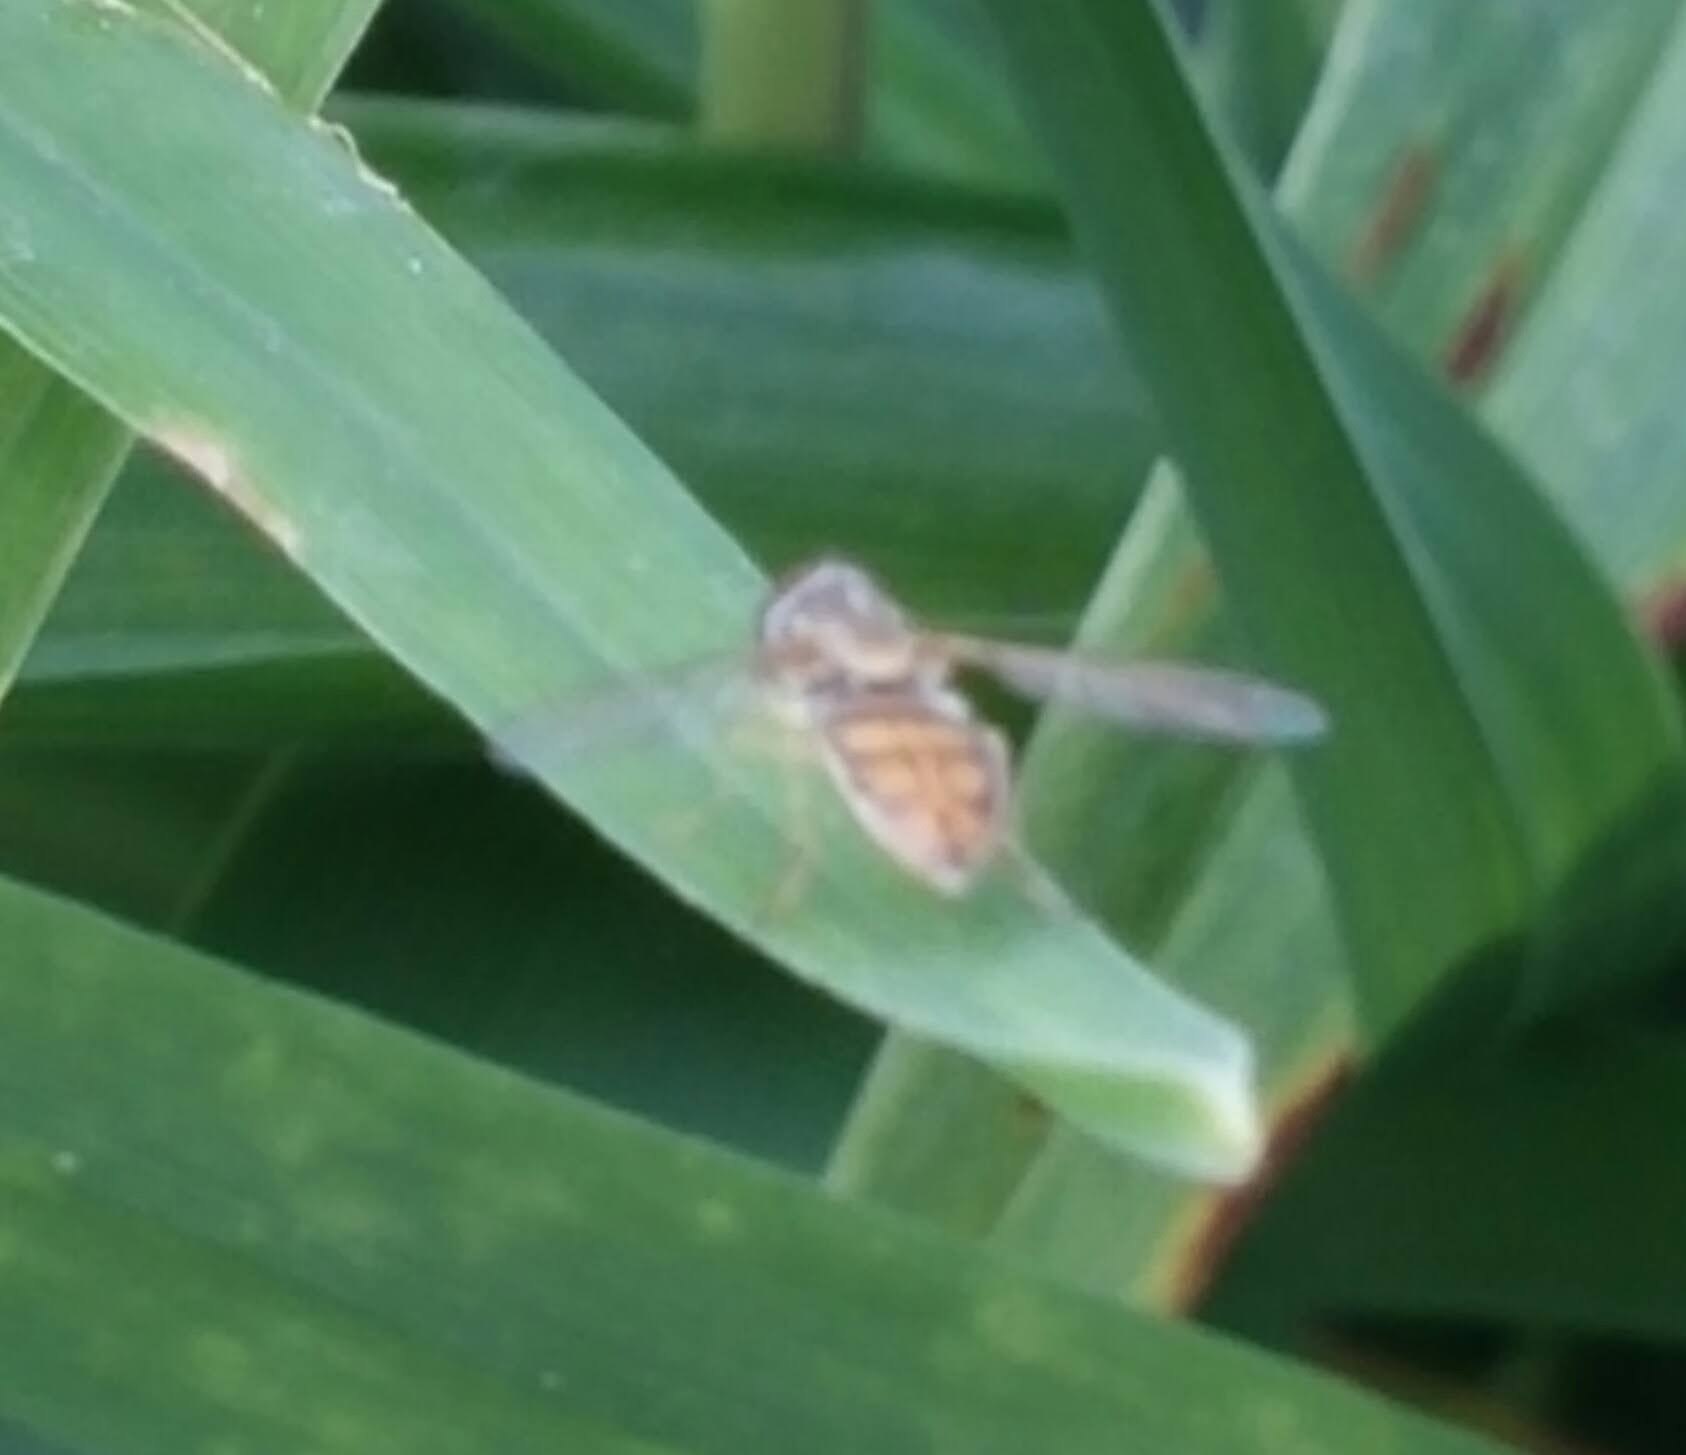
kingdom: Animalia
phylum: Arthropoda
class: Insecta
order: Diptera
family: Syrphidae
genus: Toxomerus
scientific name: Toxomerus marginatus
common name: Syrphid fly
